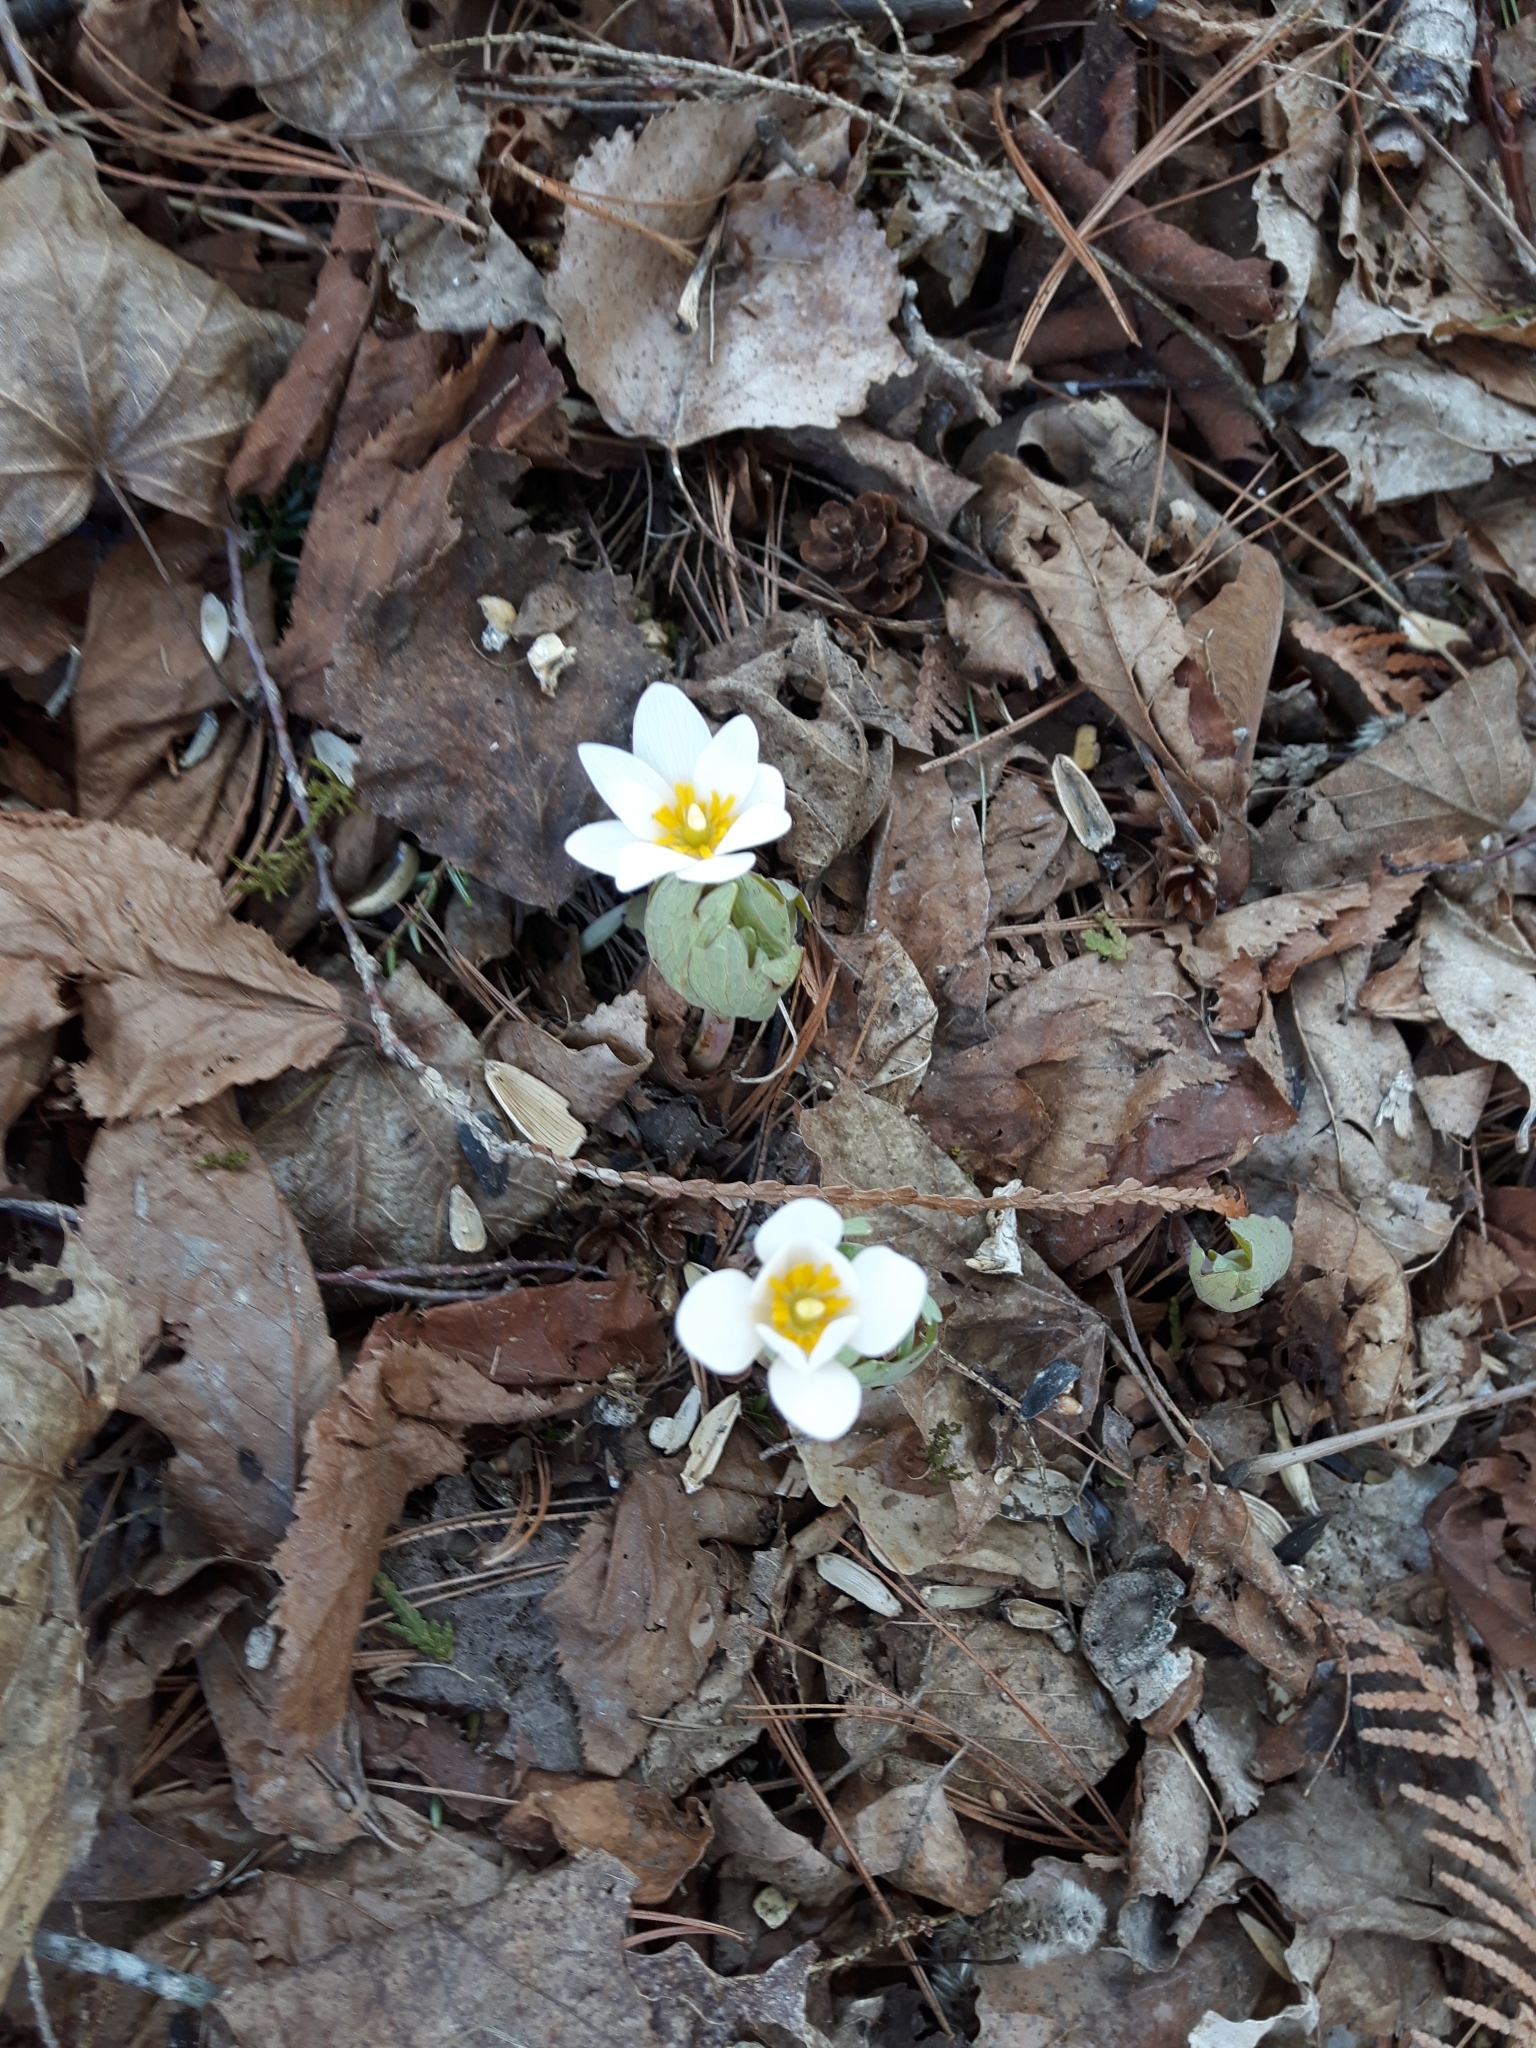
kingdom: Plantae
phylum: Tracheophyta
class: Magnoliopsida
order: Ranunculales
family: Papaveraceae
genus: Sanguinaria
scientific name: Sanguinaria canadensis
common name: Bloodroot
